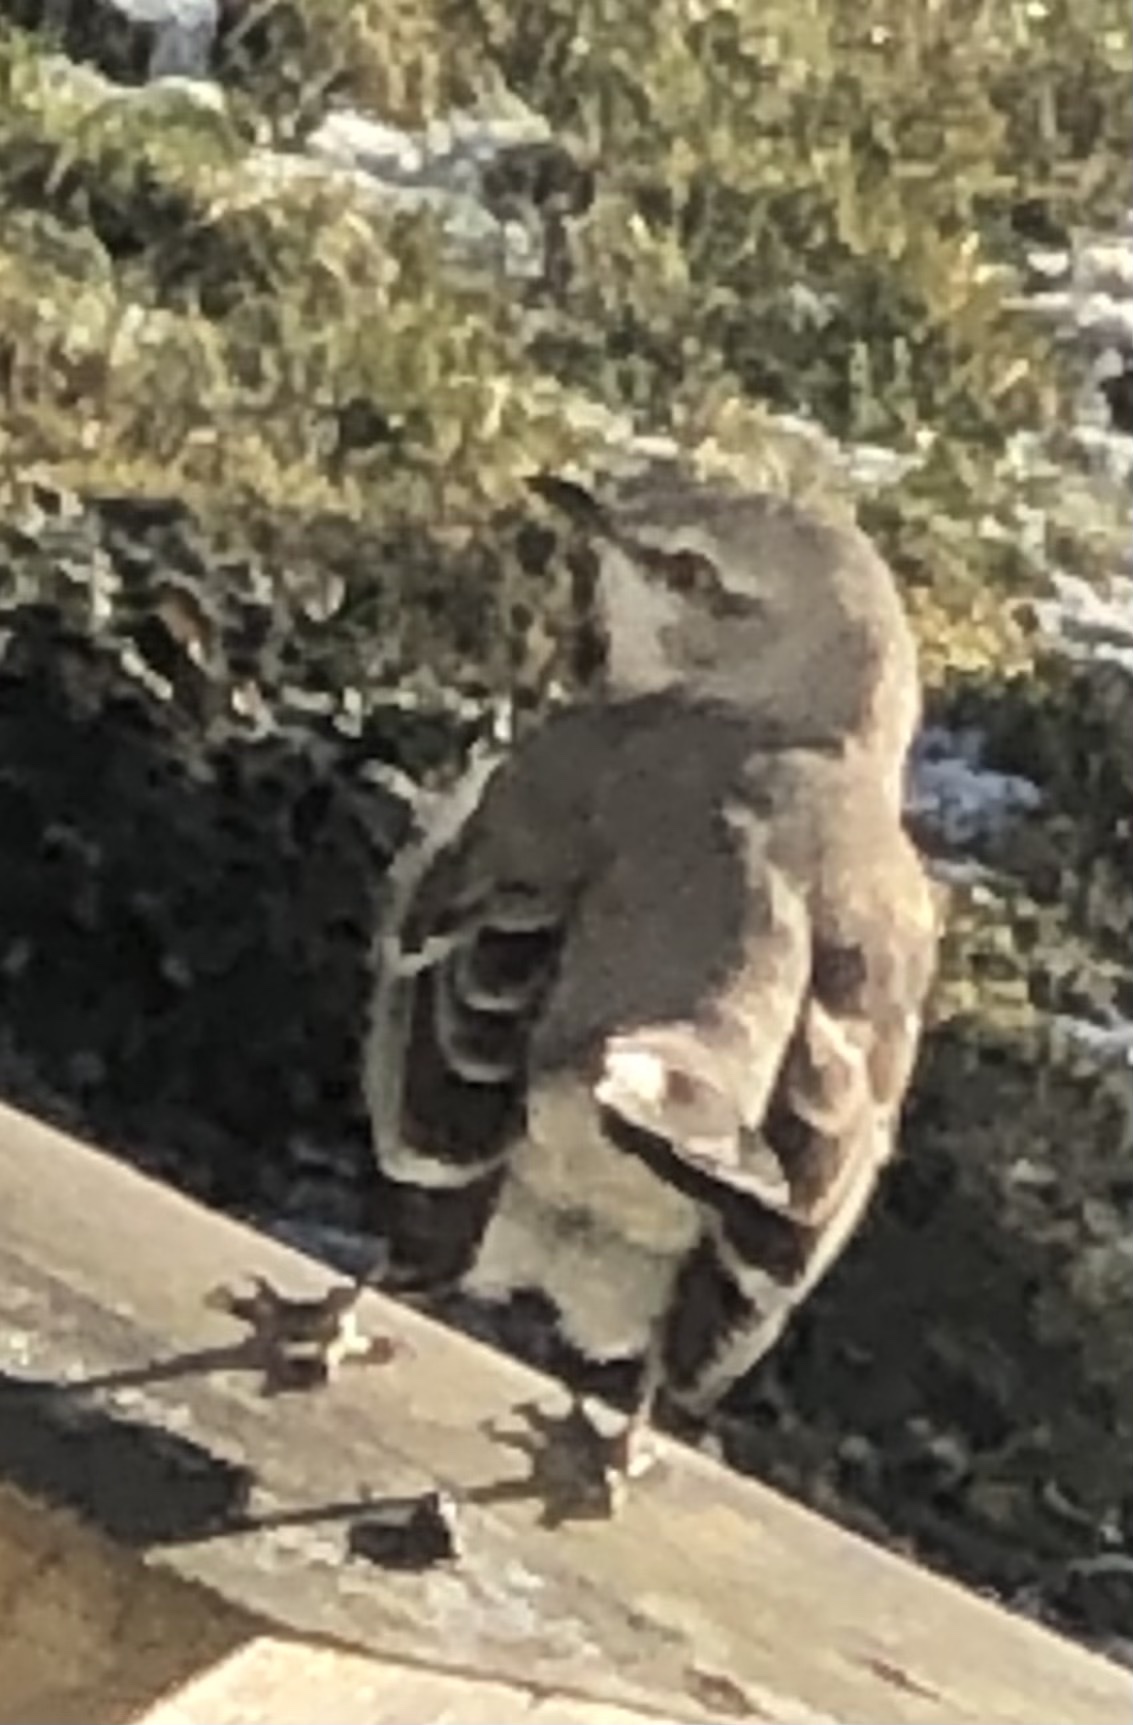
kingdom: Animalia
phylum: Chordata
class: Aves
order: Passeriformes
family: Mimidae
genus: Mimus
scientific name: Mimus polyglottos
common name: Northern mockingbird
